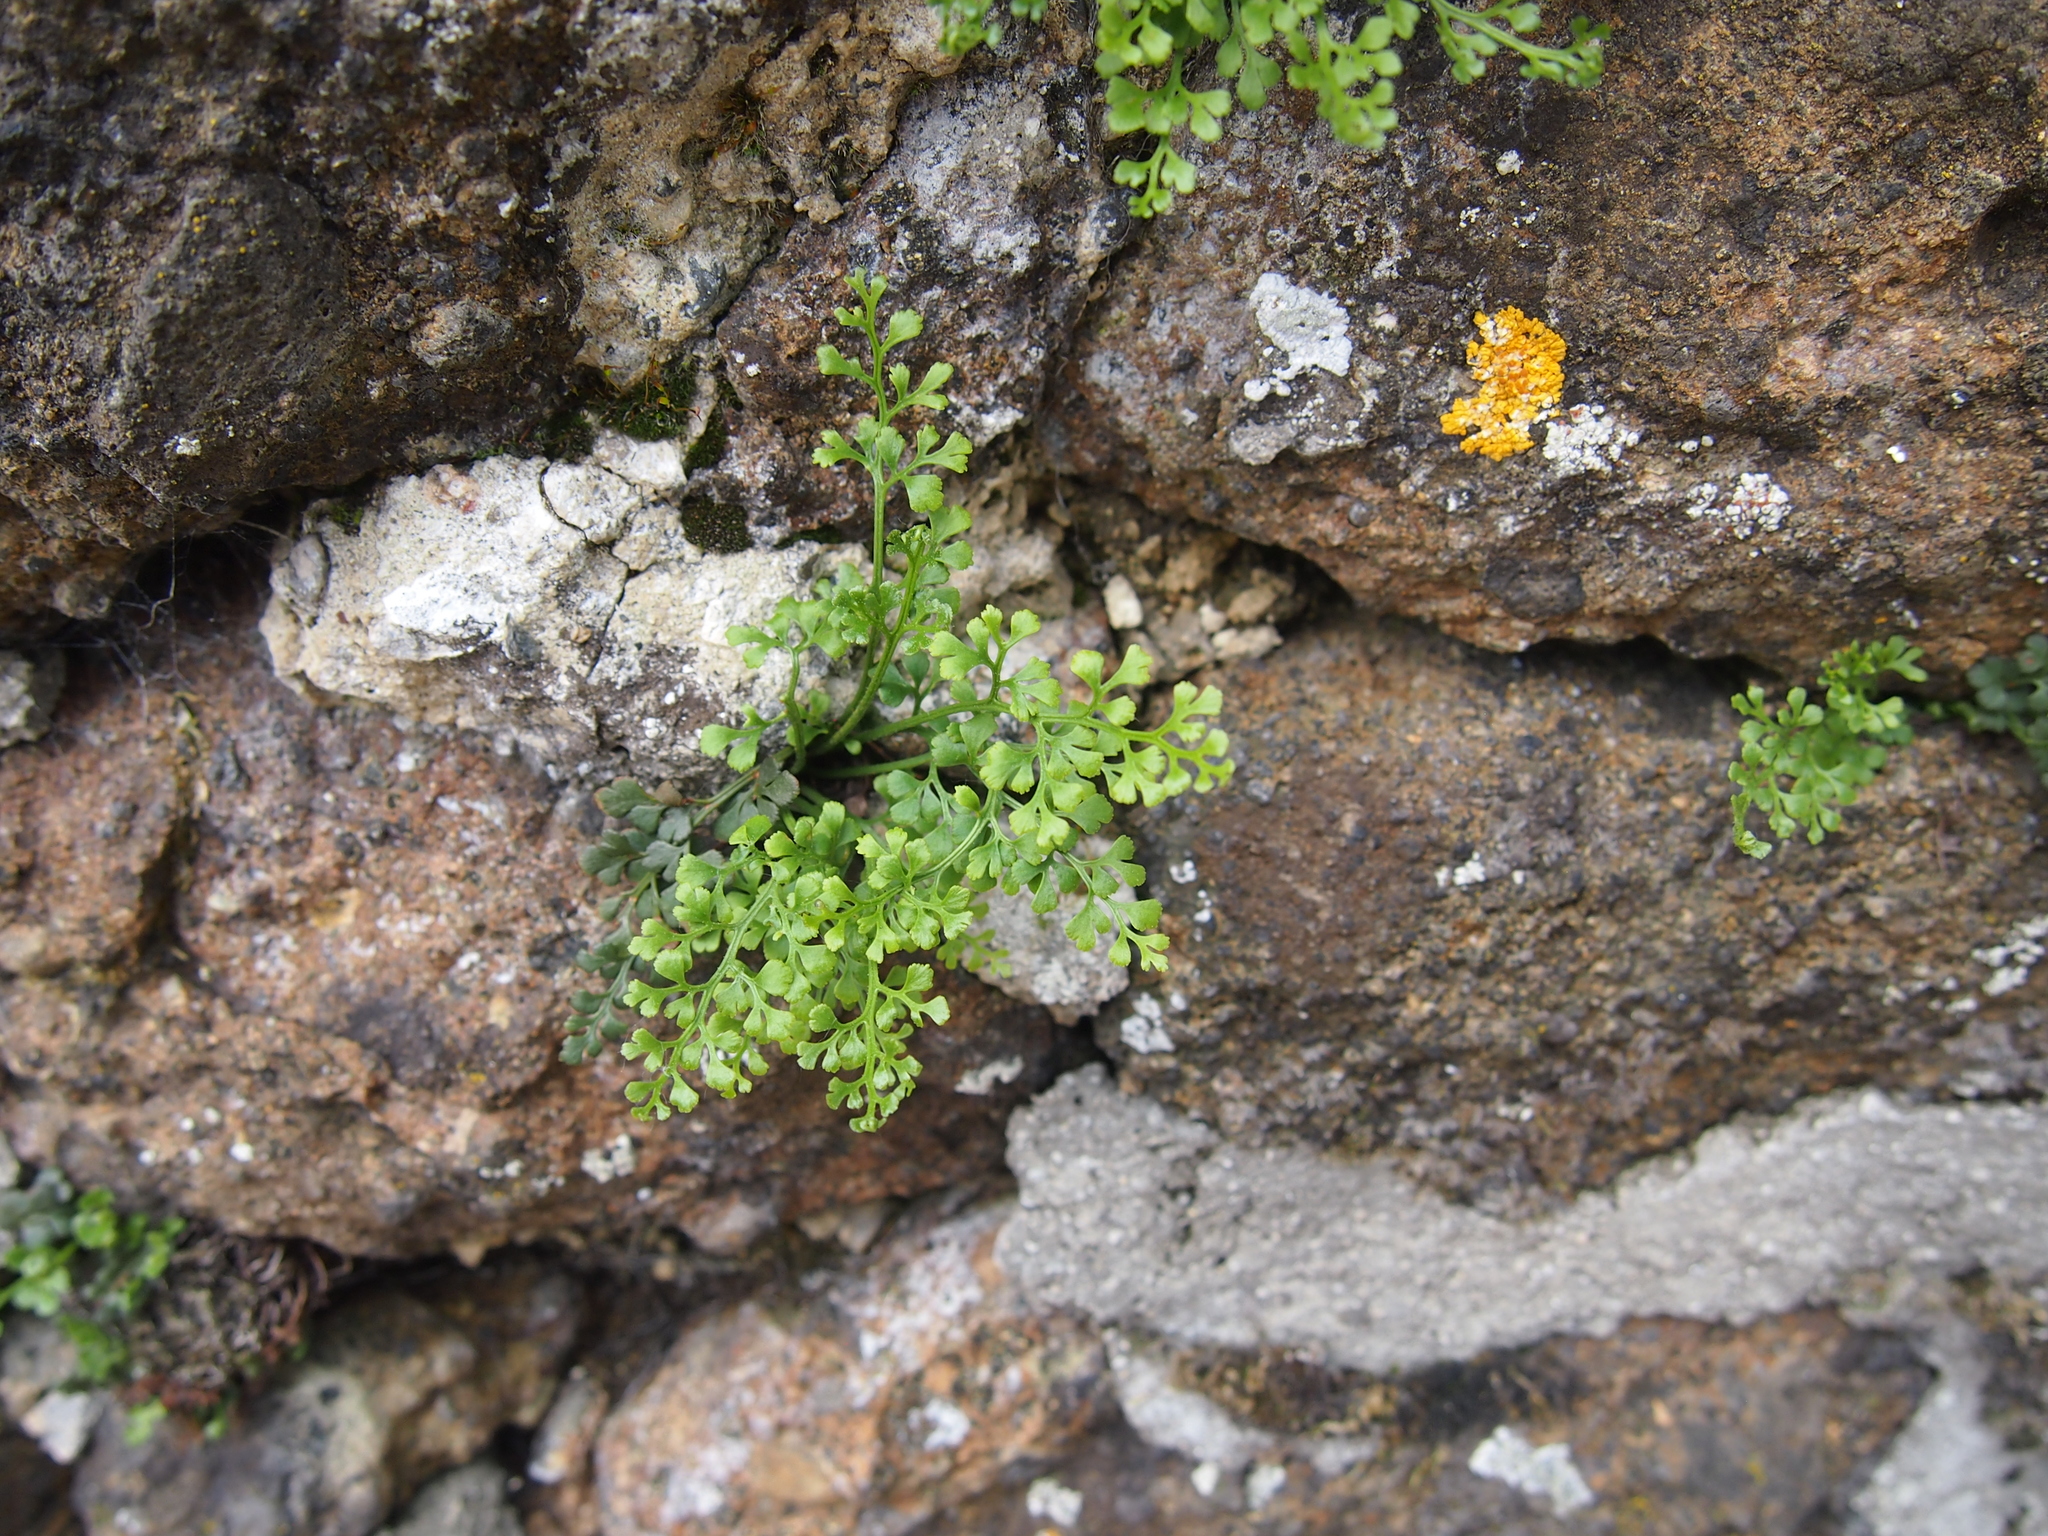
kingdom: Plantae
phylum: Tracheophyta
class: Polypodiopsida
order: Polypodiales
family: Aspleniaceae
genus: Asplenium
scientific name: Asplenium ruta-muraria
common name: Wall-rue
